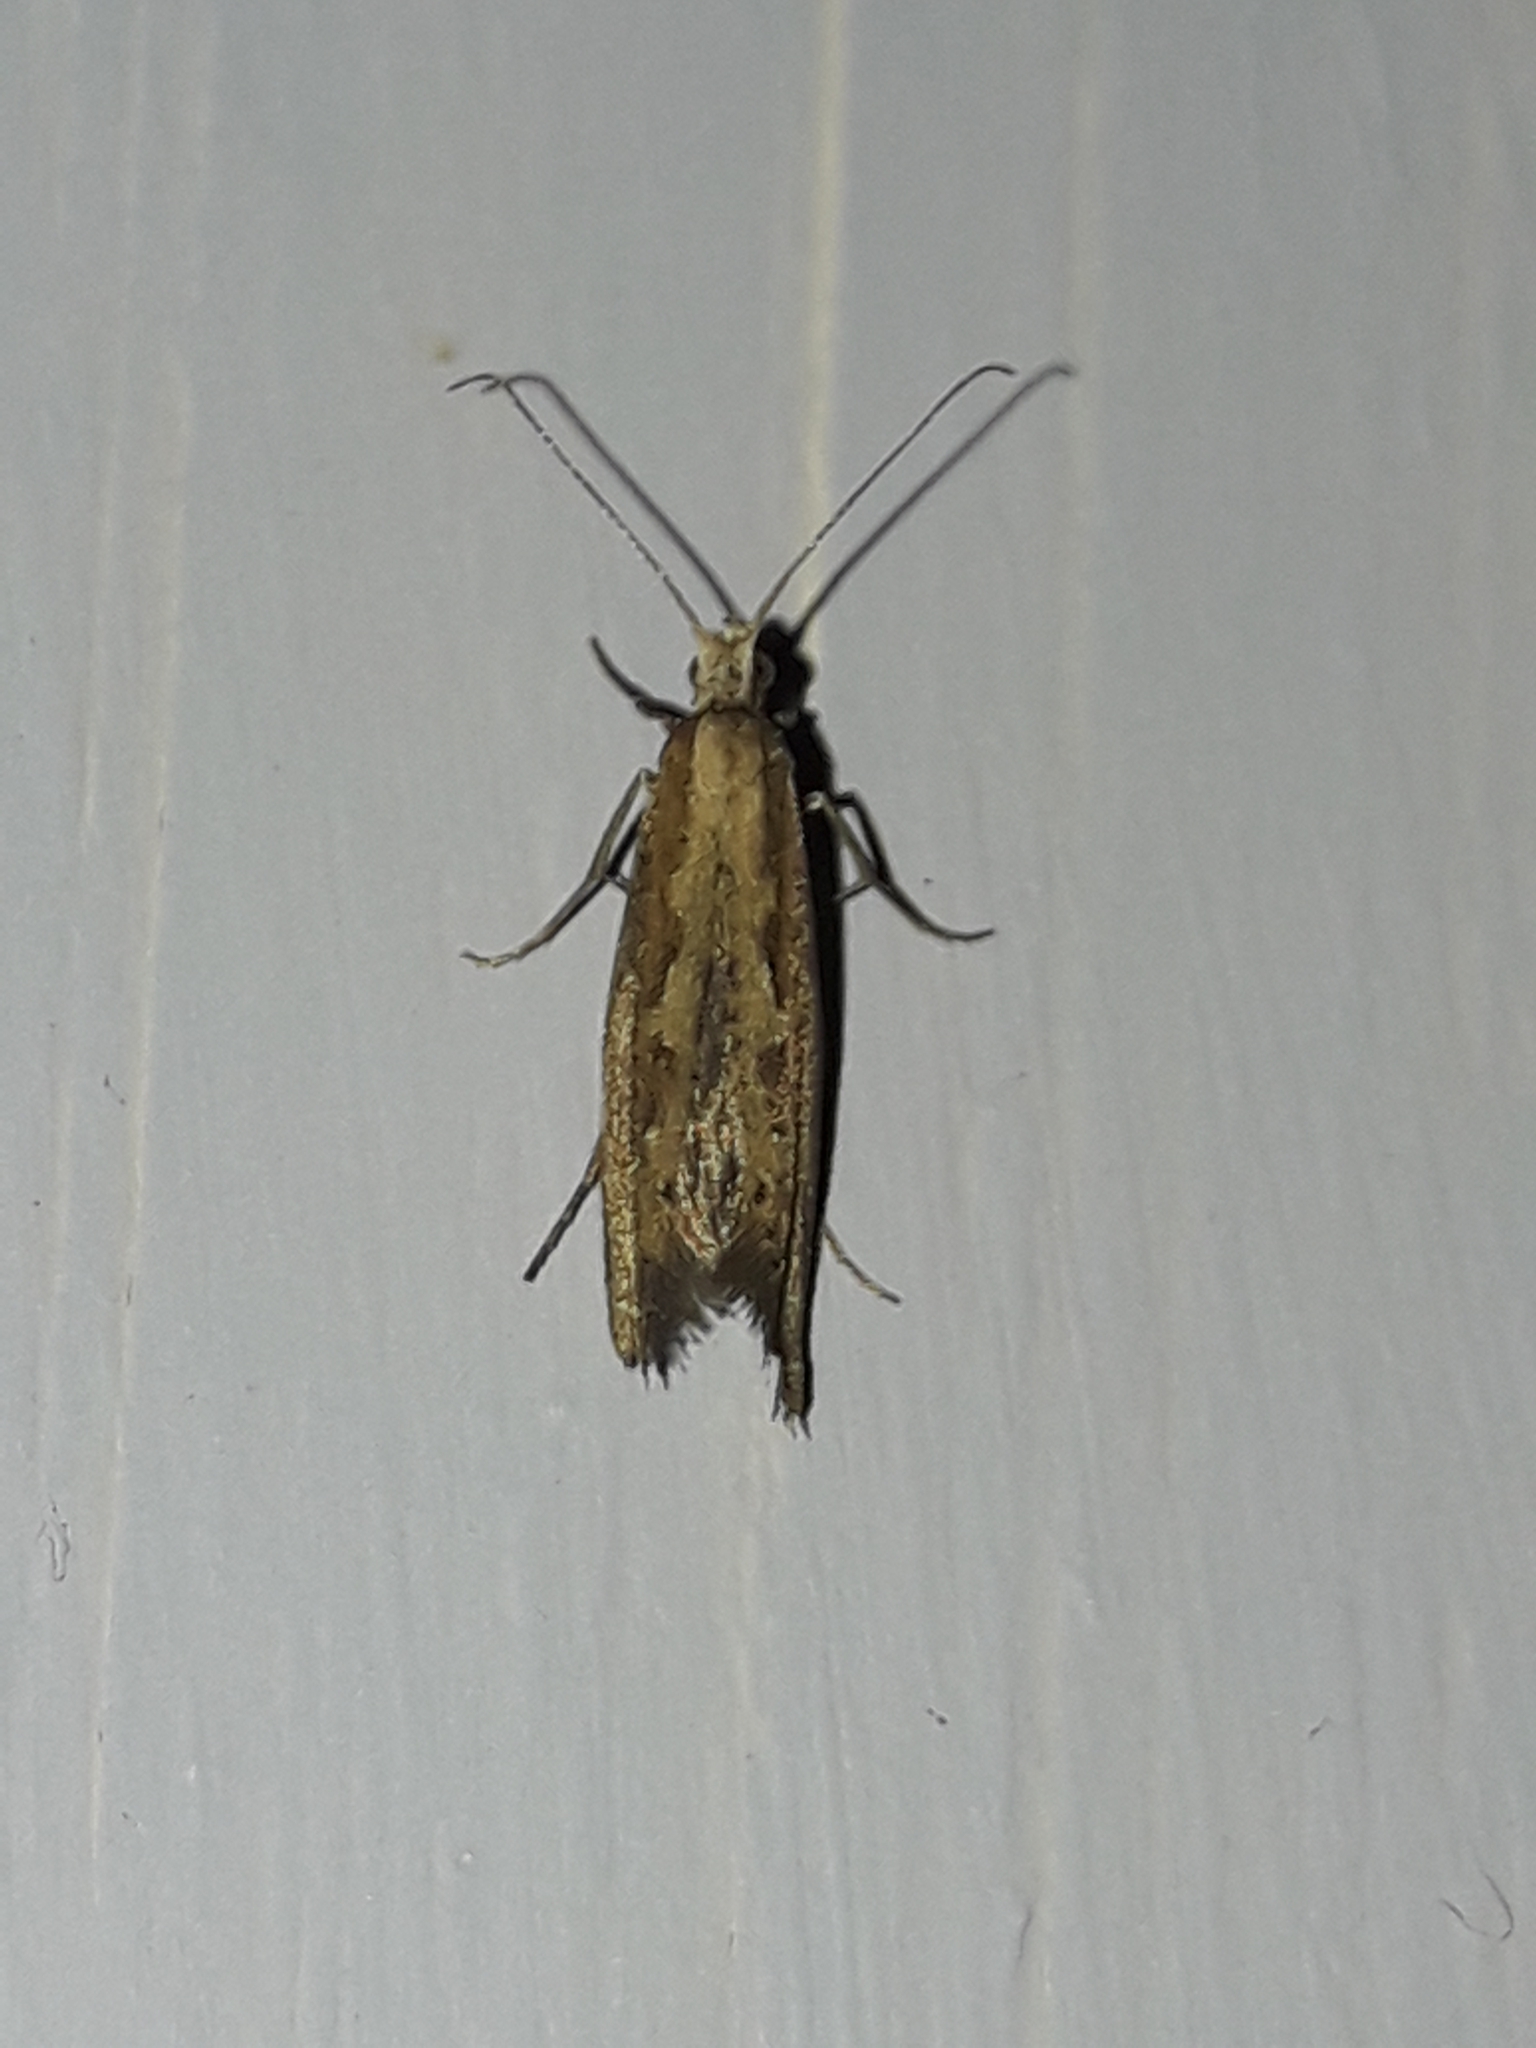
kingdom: Animalia
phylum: Arthropoda
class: Insecta
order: Lepidoptera
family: Plutellidae
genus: Plutella
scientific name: Plutella xylostella
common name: Diamond-back moth
